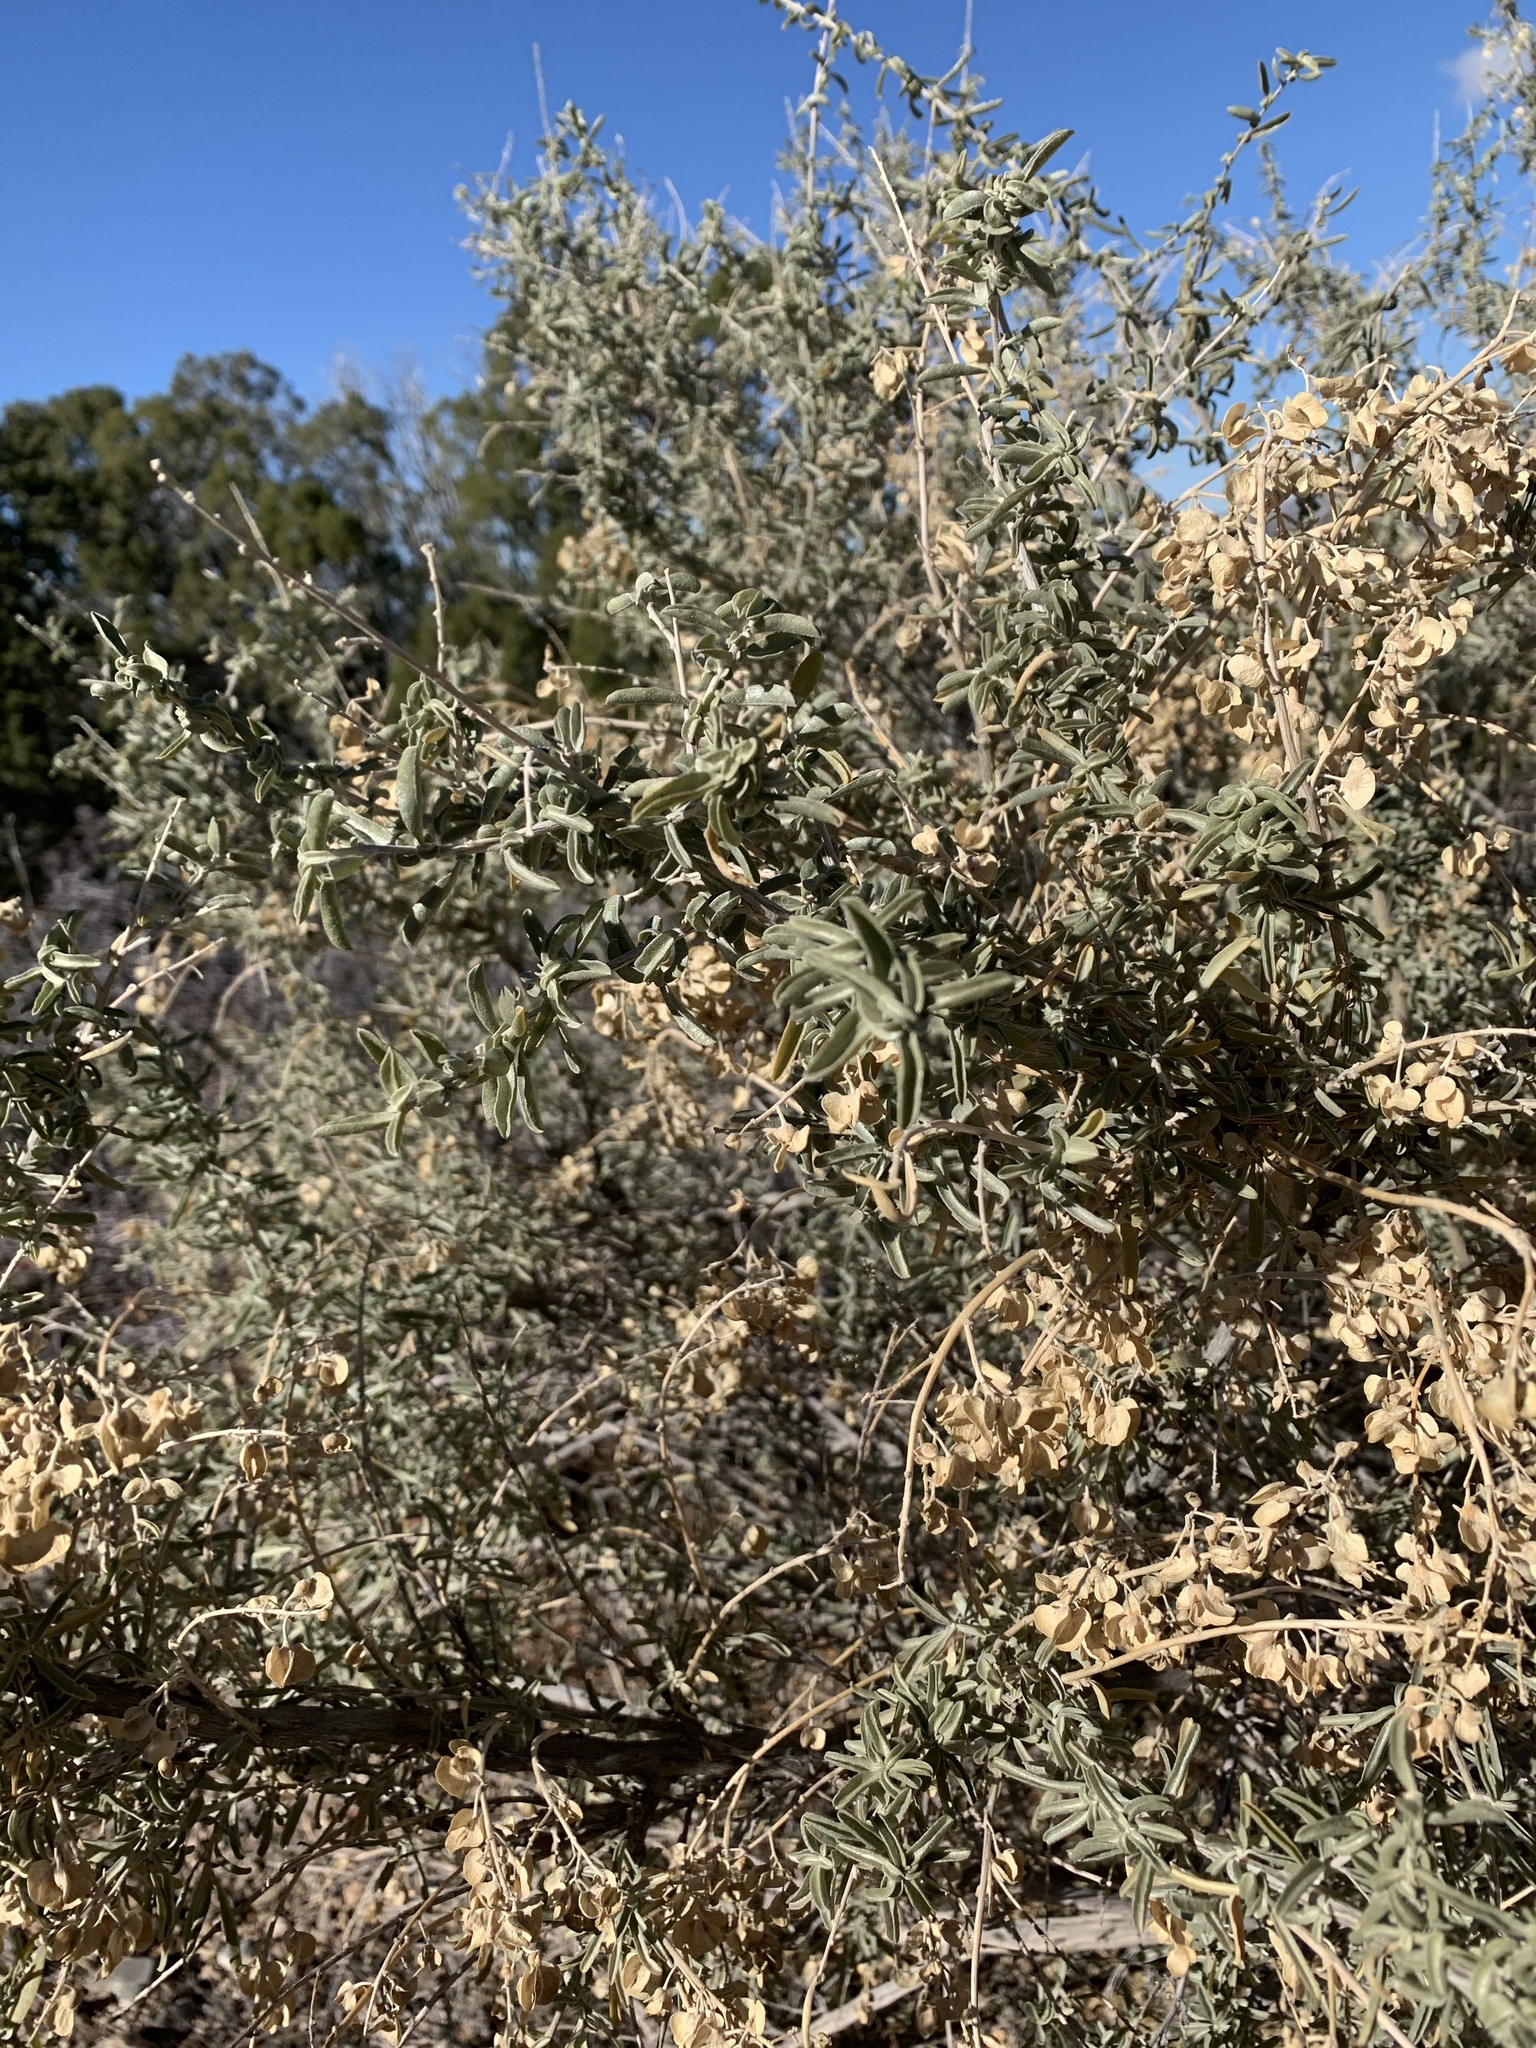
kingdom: Plantae
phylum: Tracheophyta
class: Magnoliopsida
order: Caryophyllales
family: Amaranthaceae
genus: Atriplex
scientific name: Atriplex canescens
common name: Four-wing saltbush
